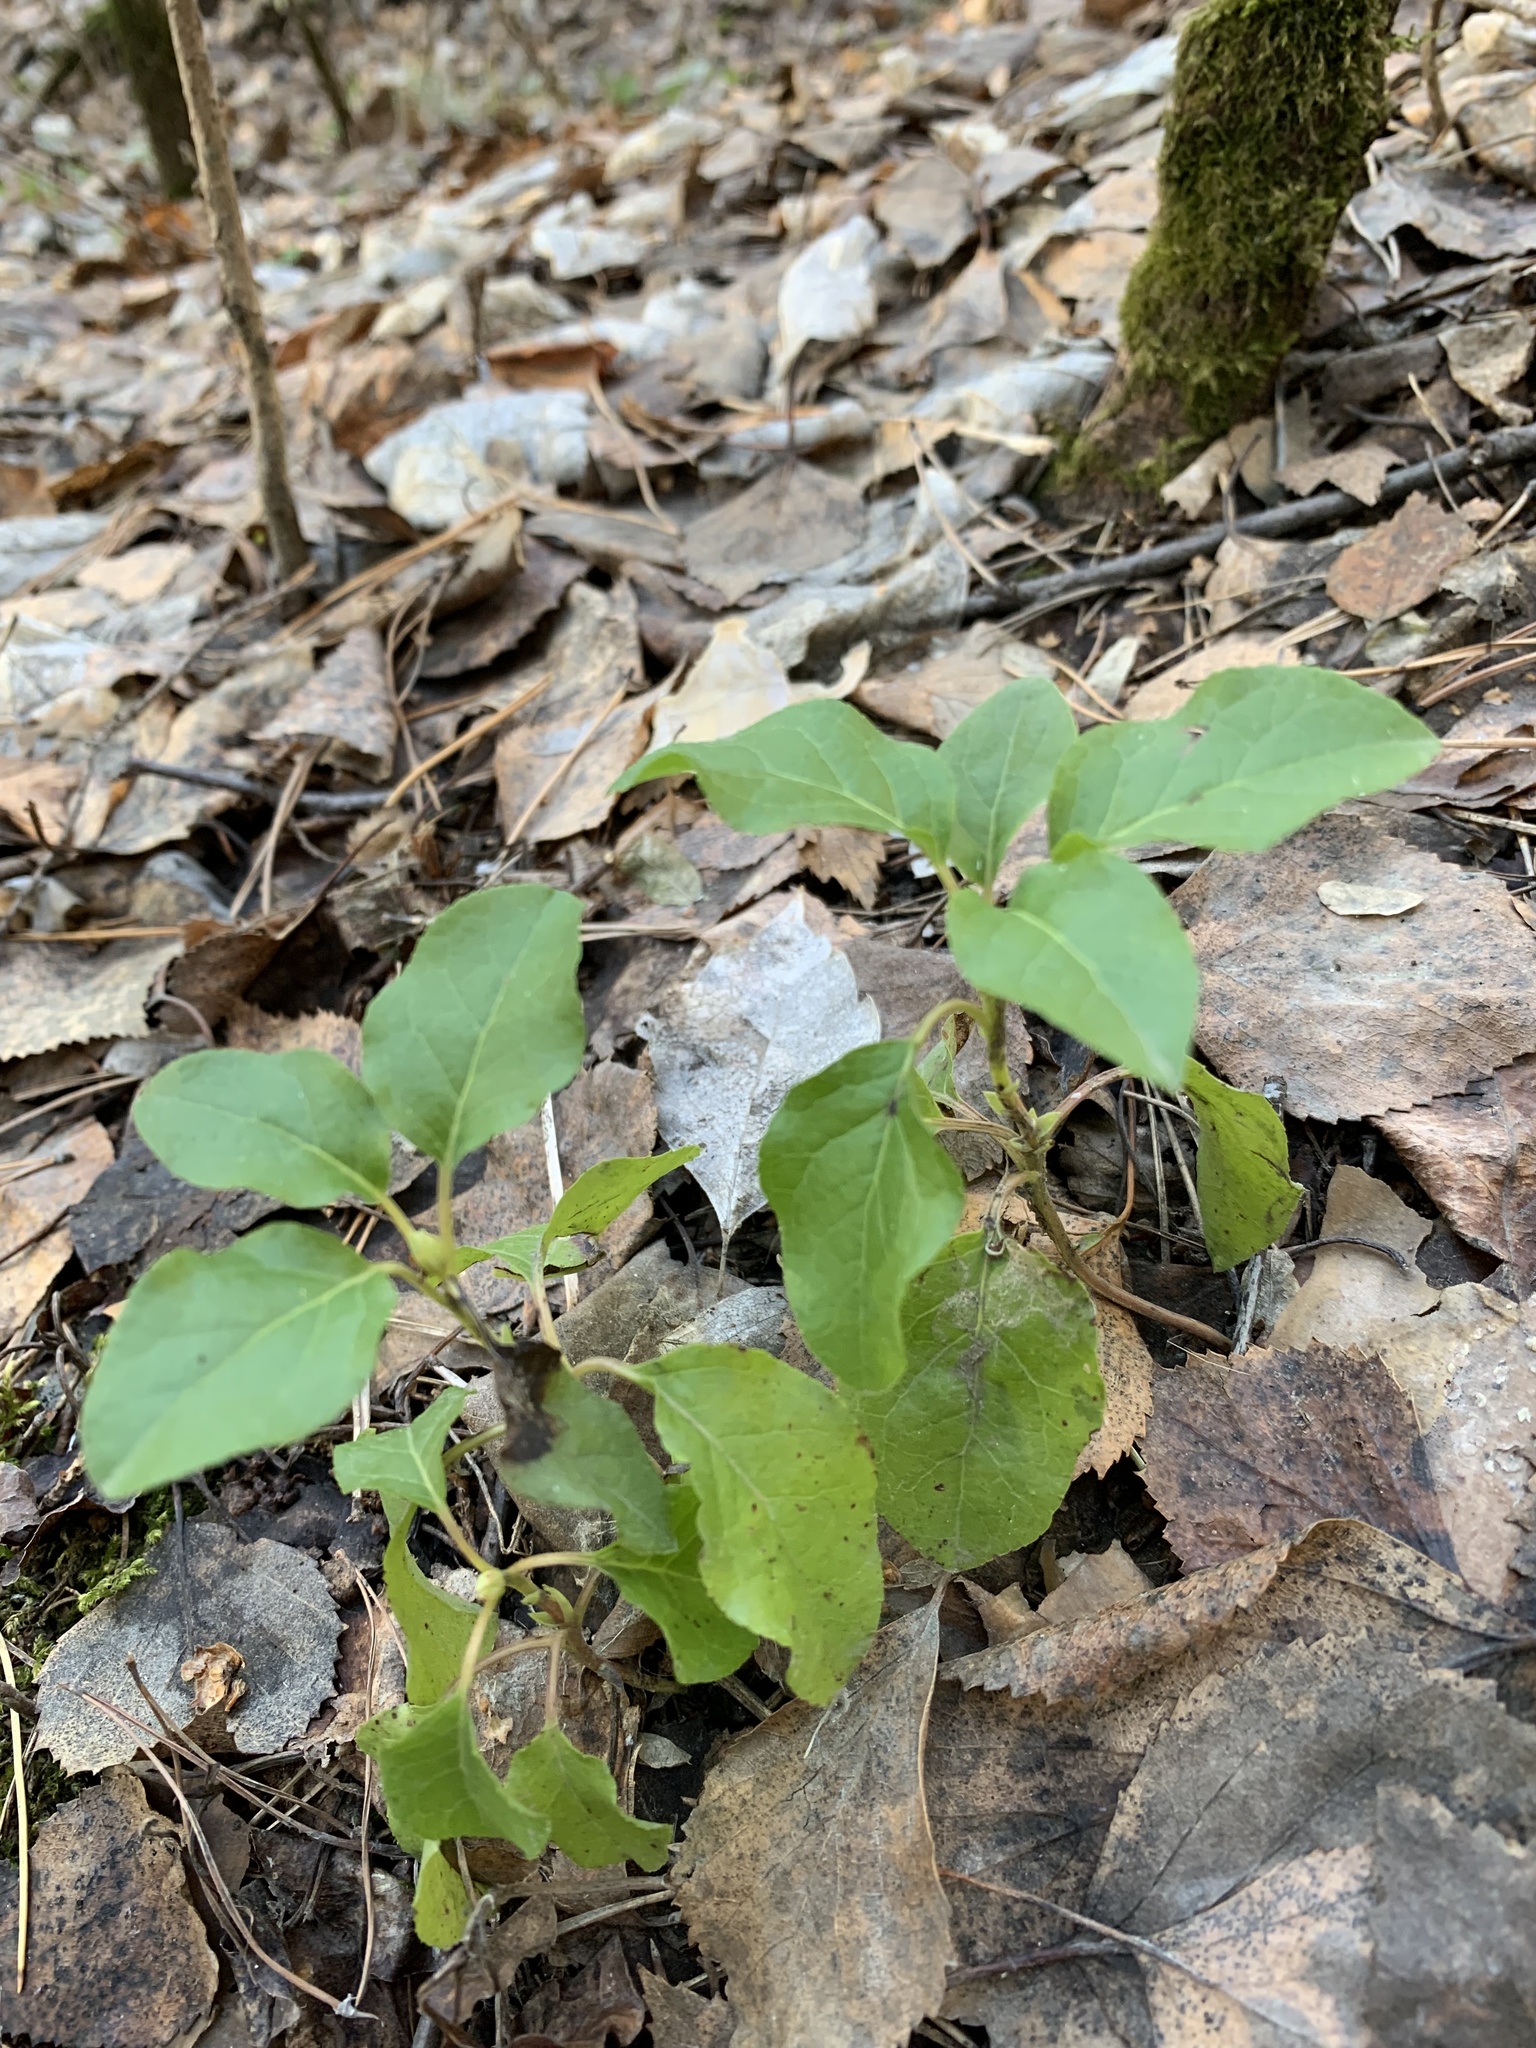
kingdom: Plantae
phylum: Tracheophyta
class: Magnoliopsida
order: Ericales
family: Ericaceae
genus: Orthilia
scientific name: Orthilia secunda
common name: One-sided orthilia
